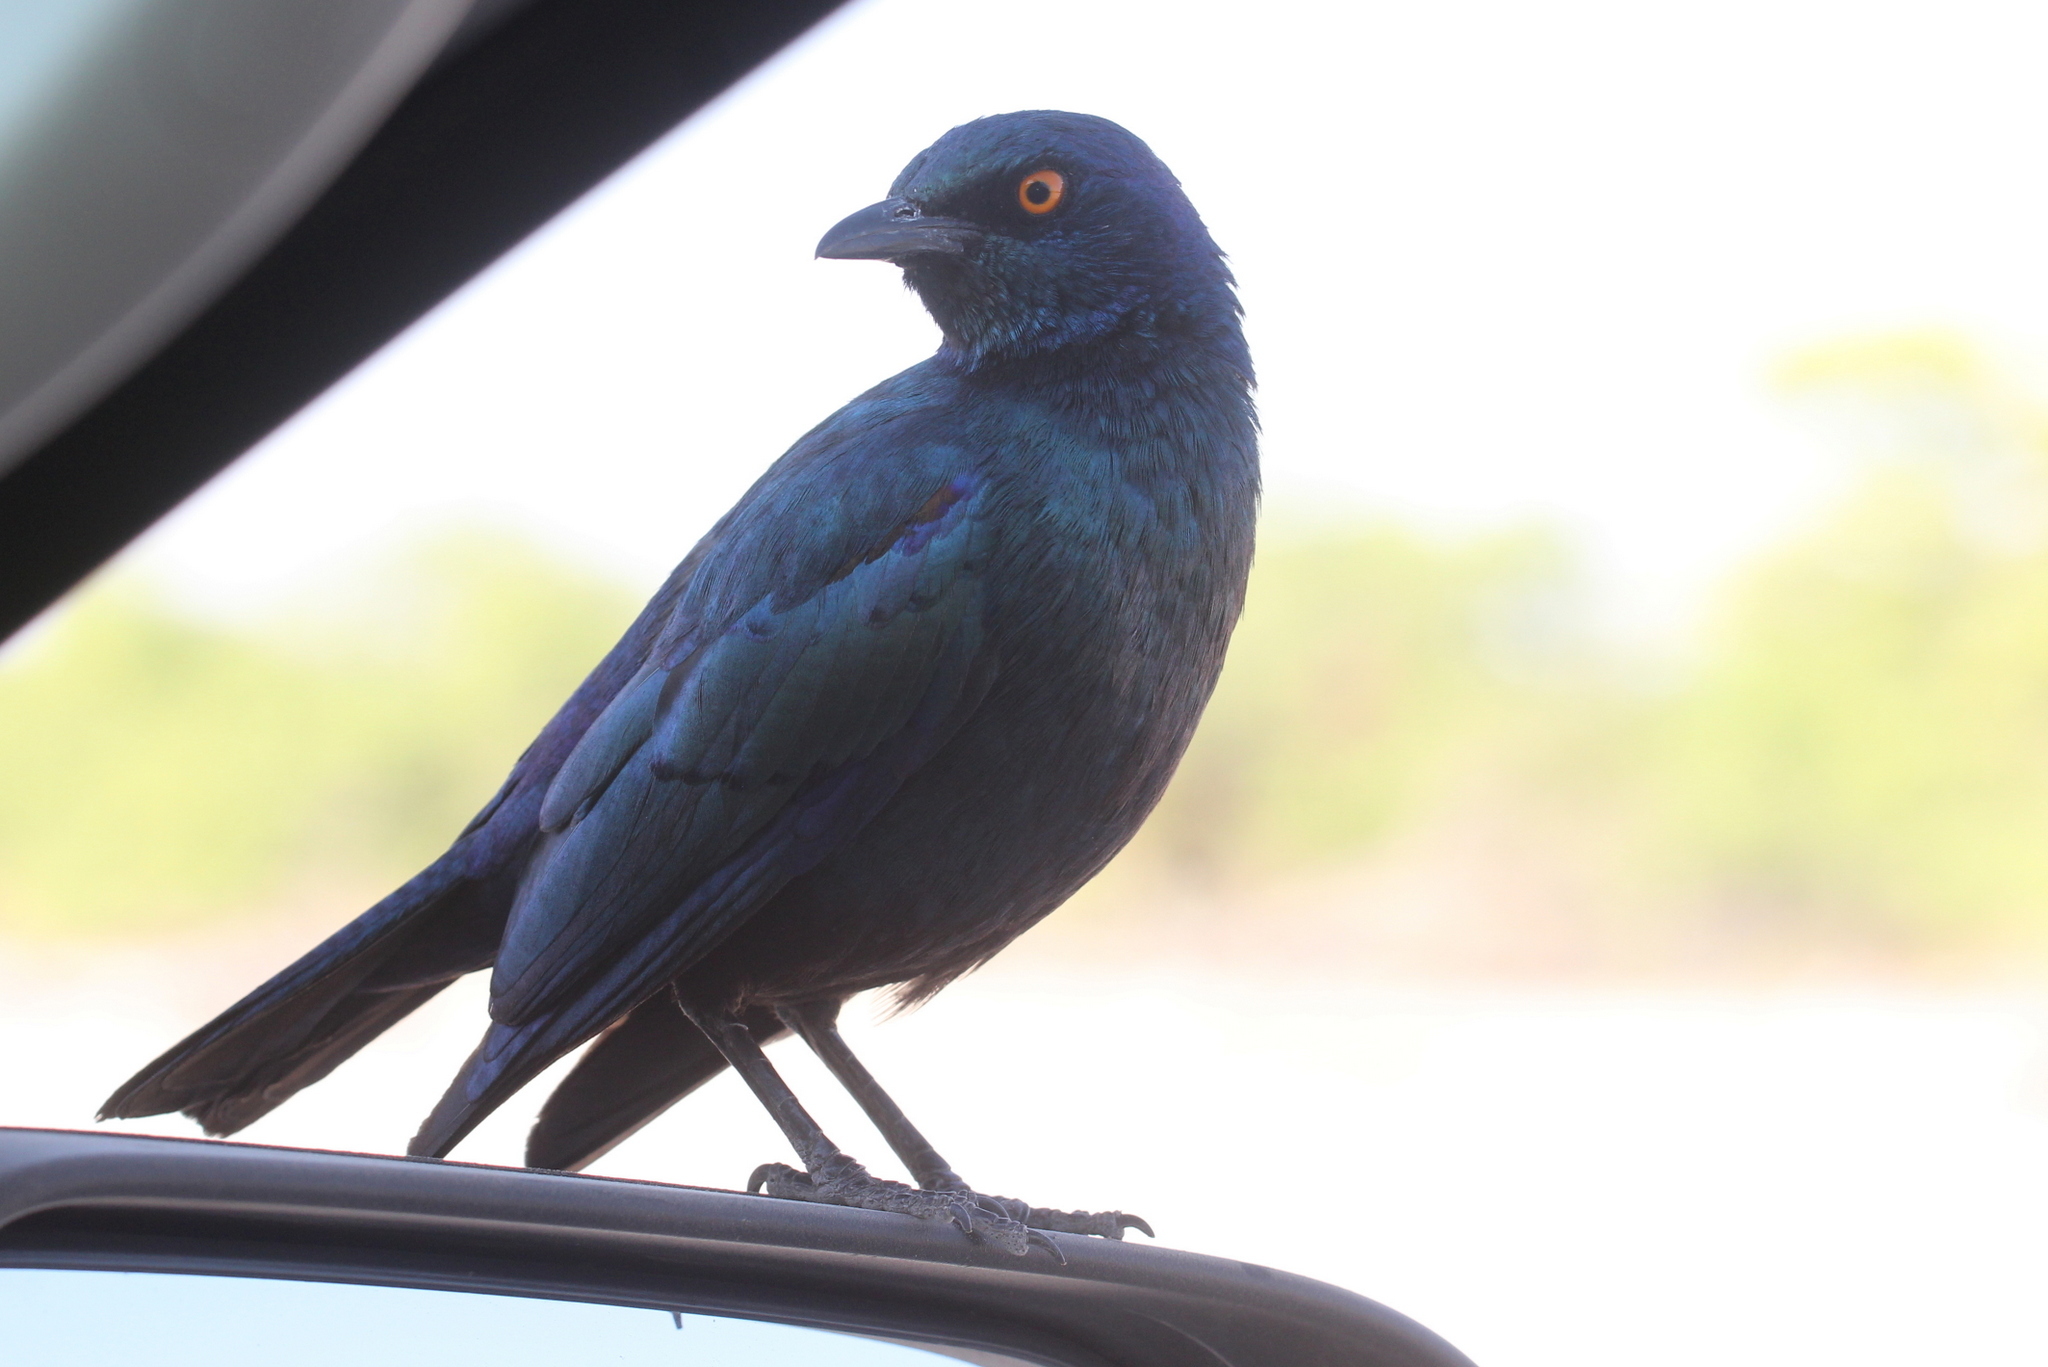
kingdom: Animalia
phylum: Chordata
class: Aves
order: Passeriformes
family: Sturnidae
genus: Lamprotornis
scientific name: Lamprotornis nitens
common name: Cape starling
